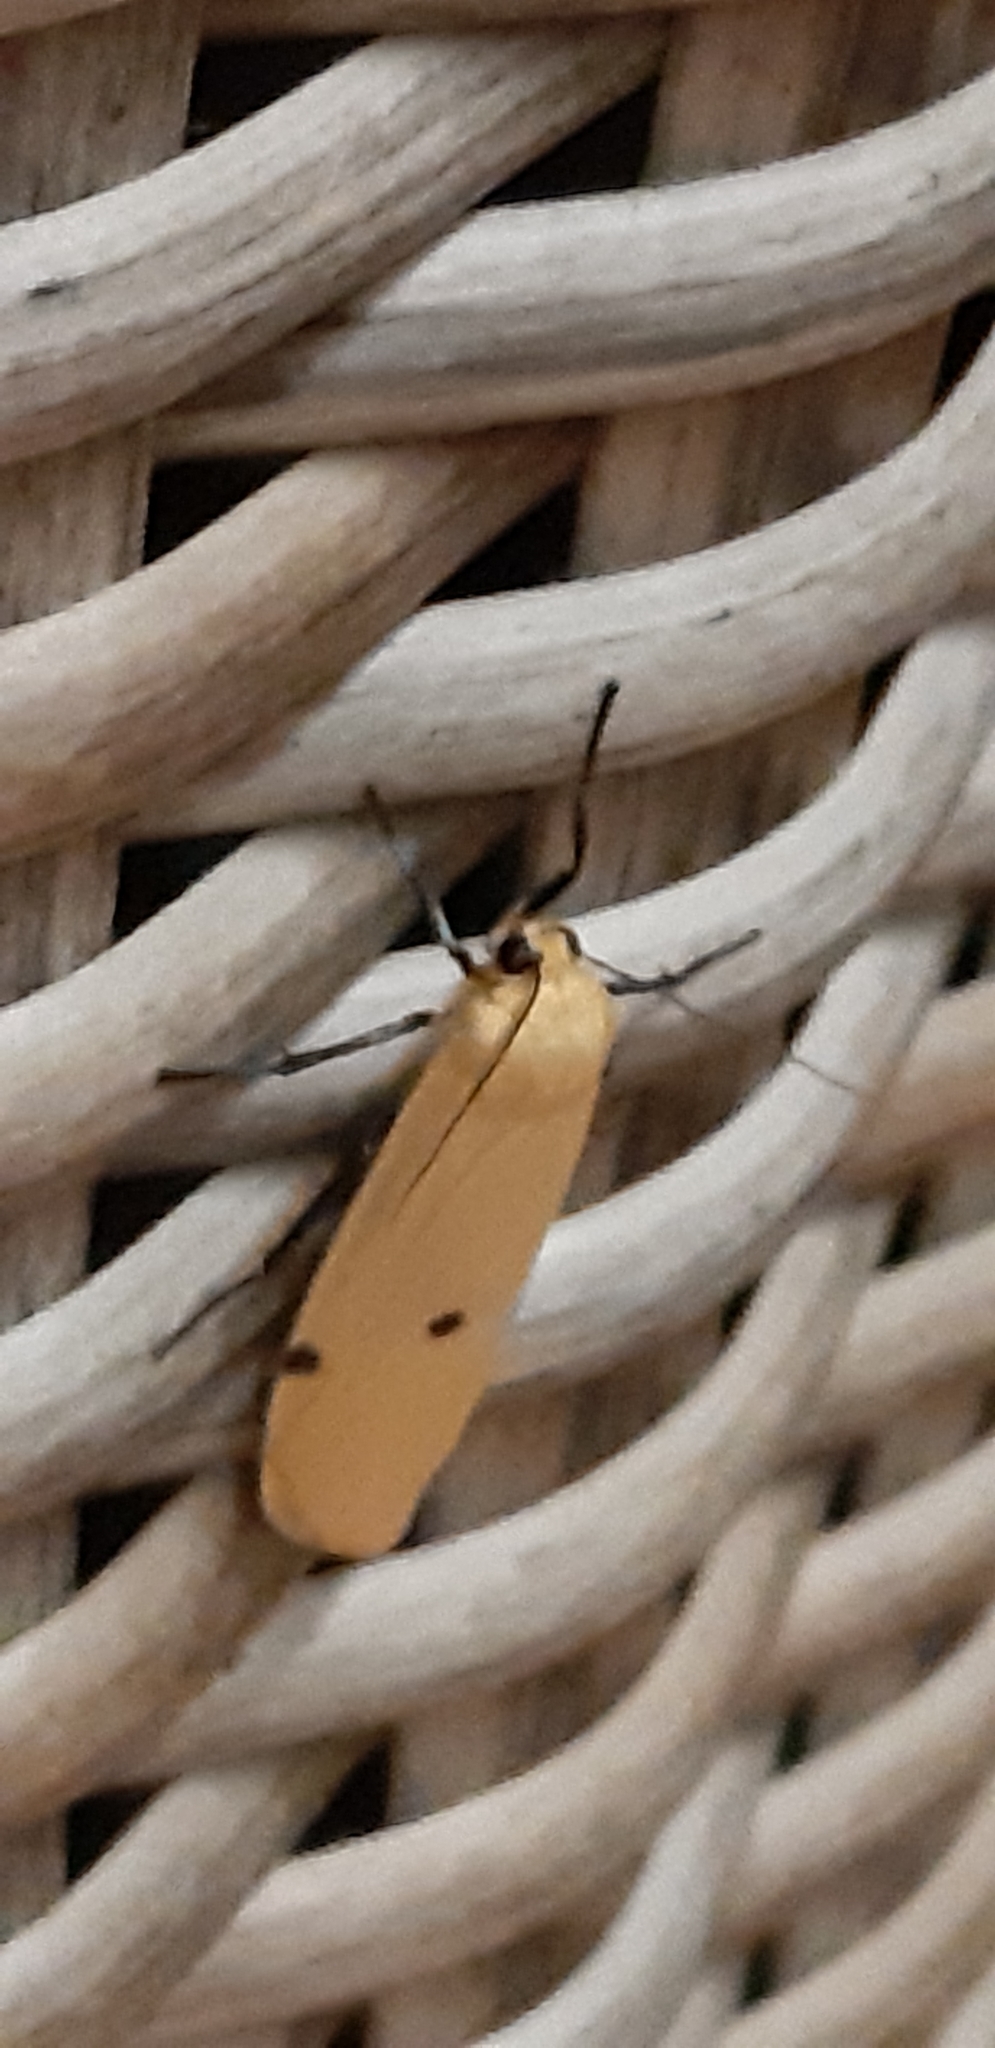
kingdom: Animalia
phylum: Arthropoda
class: Insecta
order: Lepidoptera
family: Erebidae
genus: Lithosia
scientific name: Lithosia quadra
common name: Four-spotted footman
